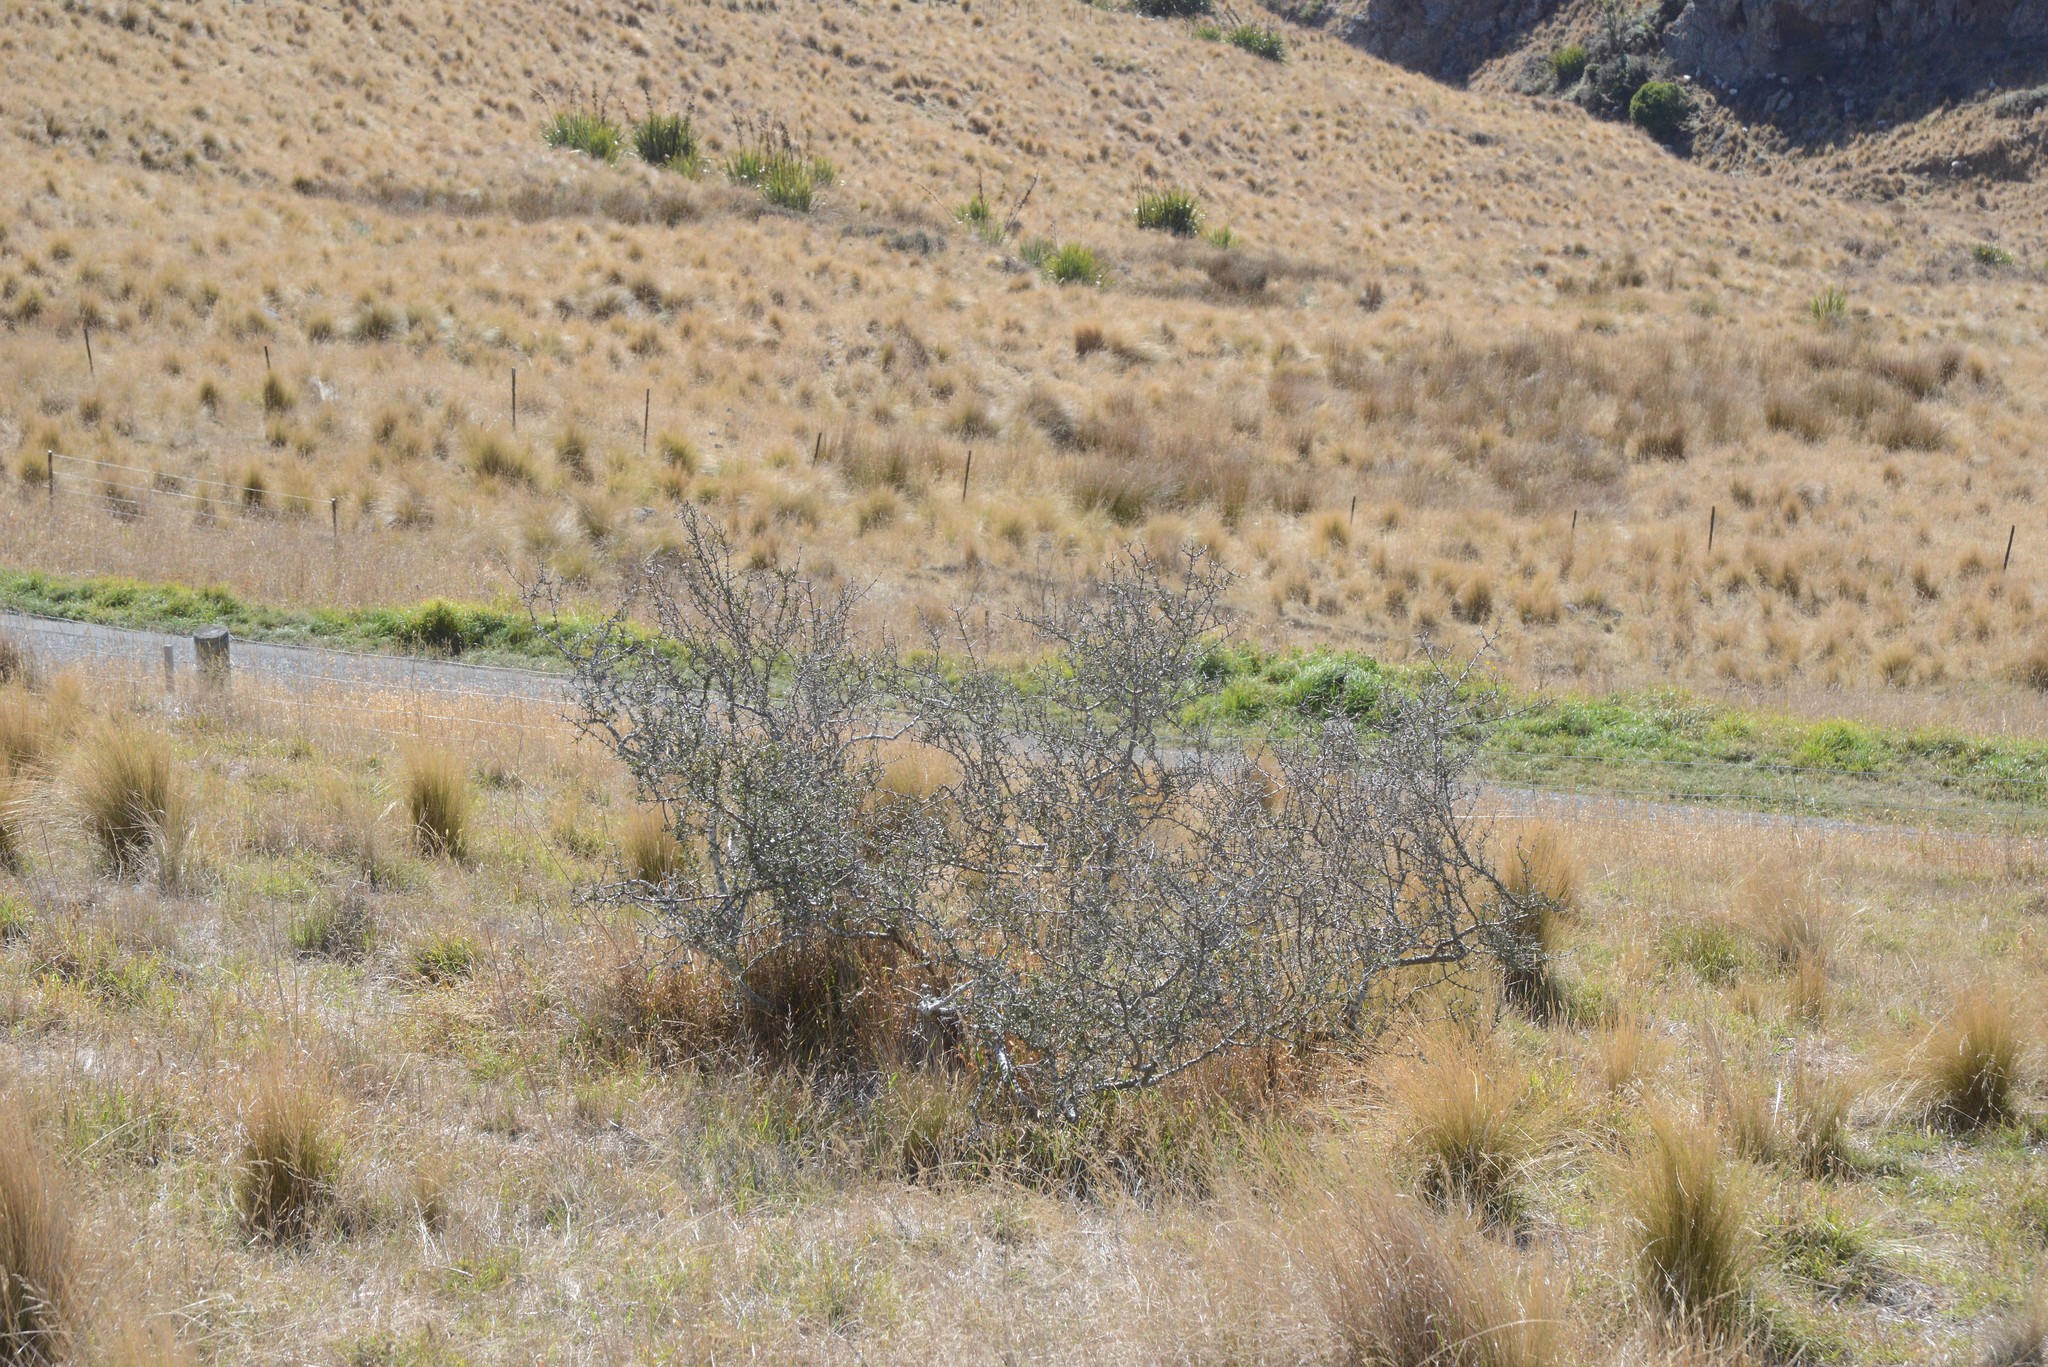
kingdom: Plantae
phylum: Tracheophyta
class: Magnoliopsida
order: Rosales
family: Rhamnaceae
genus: Discaria
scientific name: Discaria toumatou
